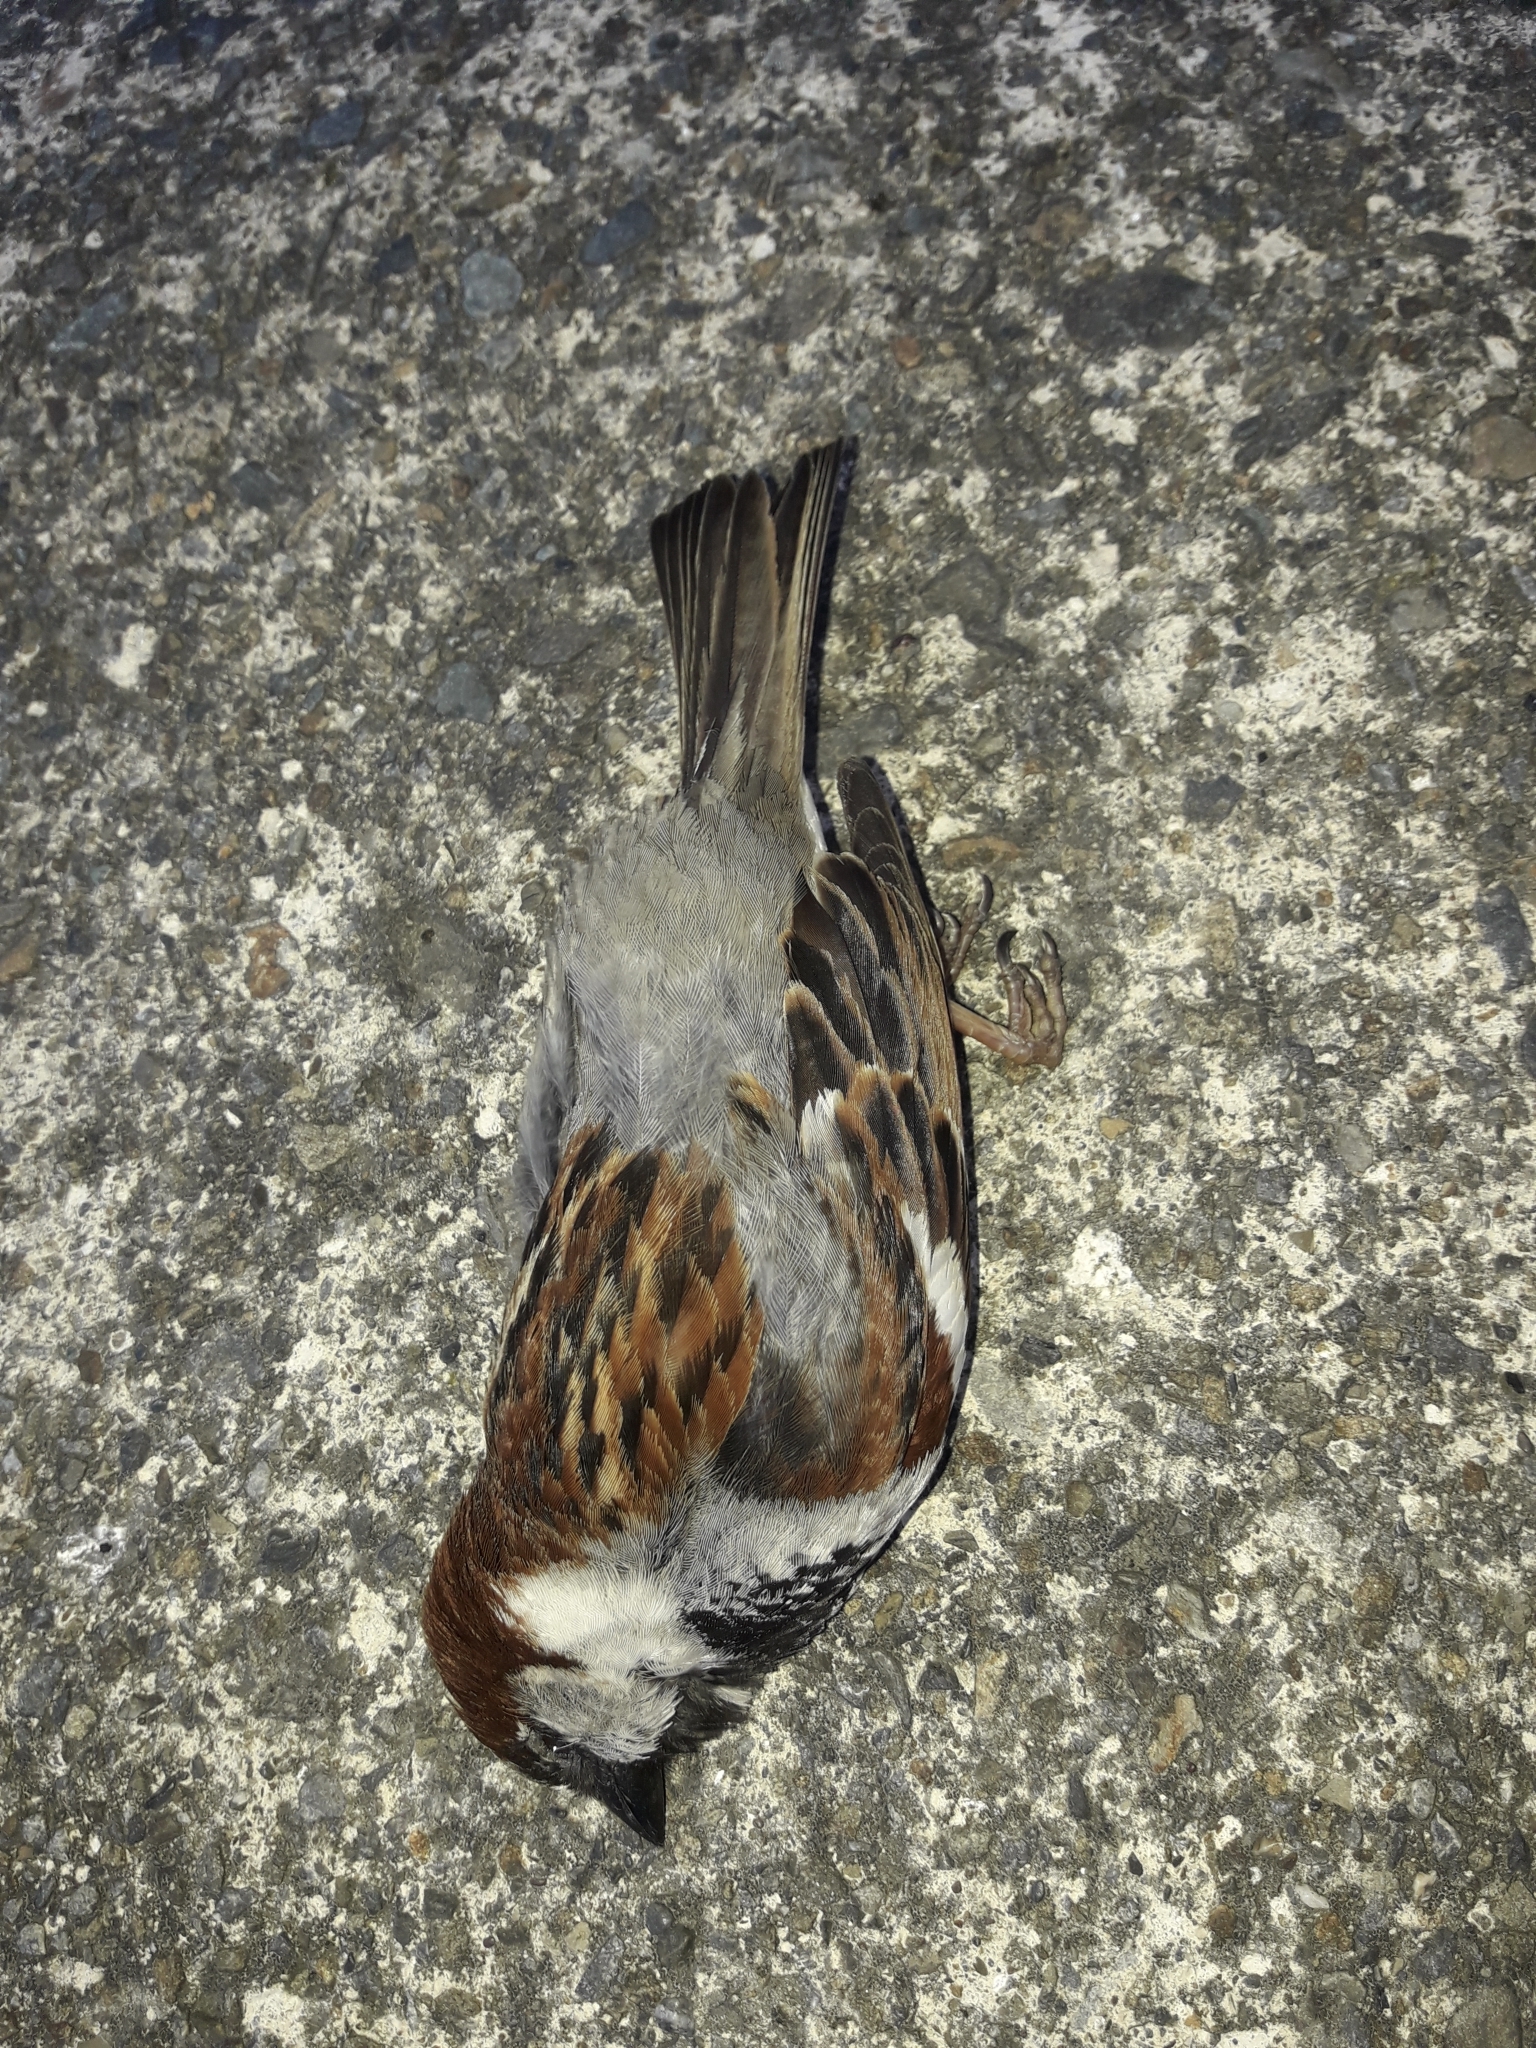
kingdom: Animalia
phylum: Chordata
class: Aves
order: Passeriformes
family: Passeridae
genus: Passer
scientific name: Passer domesticus
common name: House sparrow
